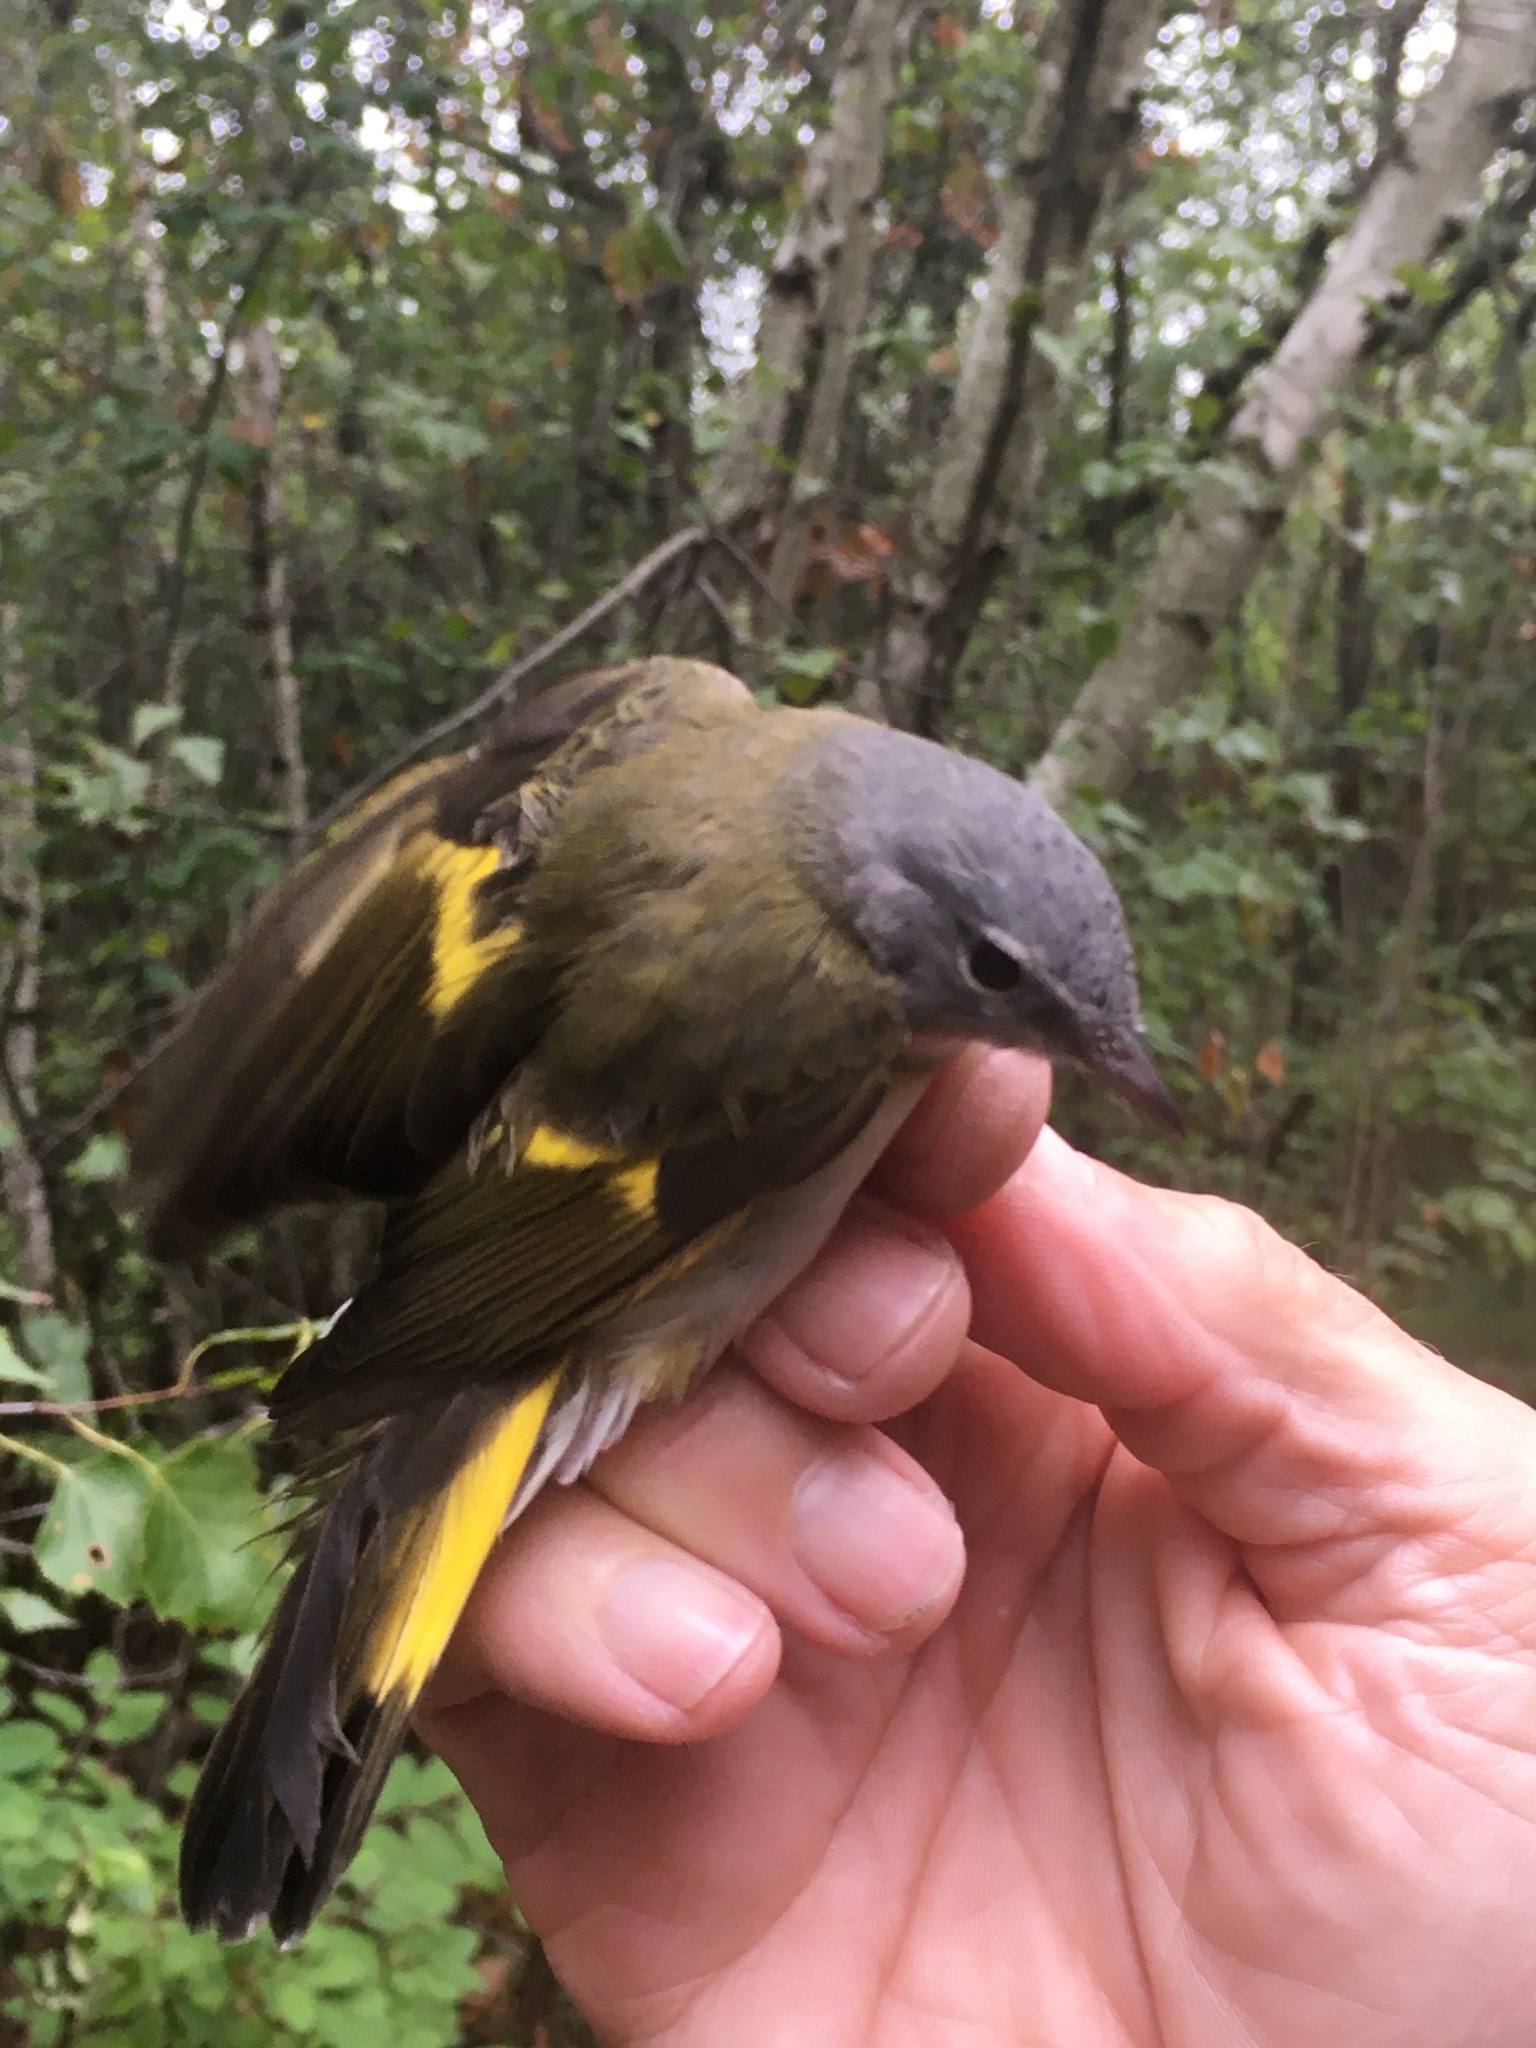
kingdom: Animalia
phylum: Chordata
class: Aves
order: Passeriformes
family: Parulidae
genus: Setophaga
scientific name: Setophaga ruticilla
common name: American redstart
